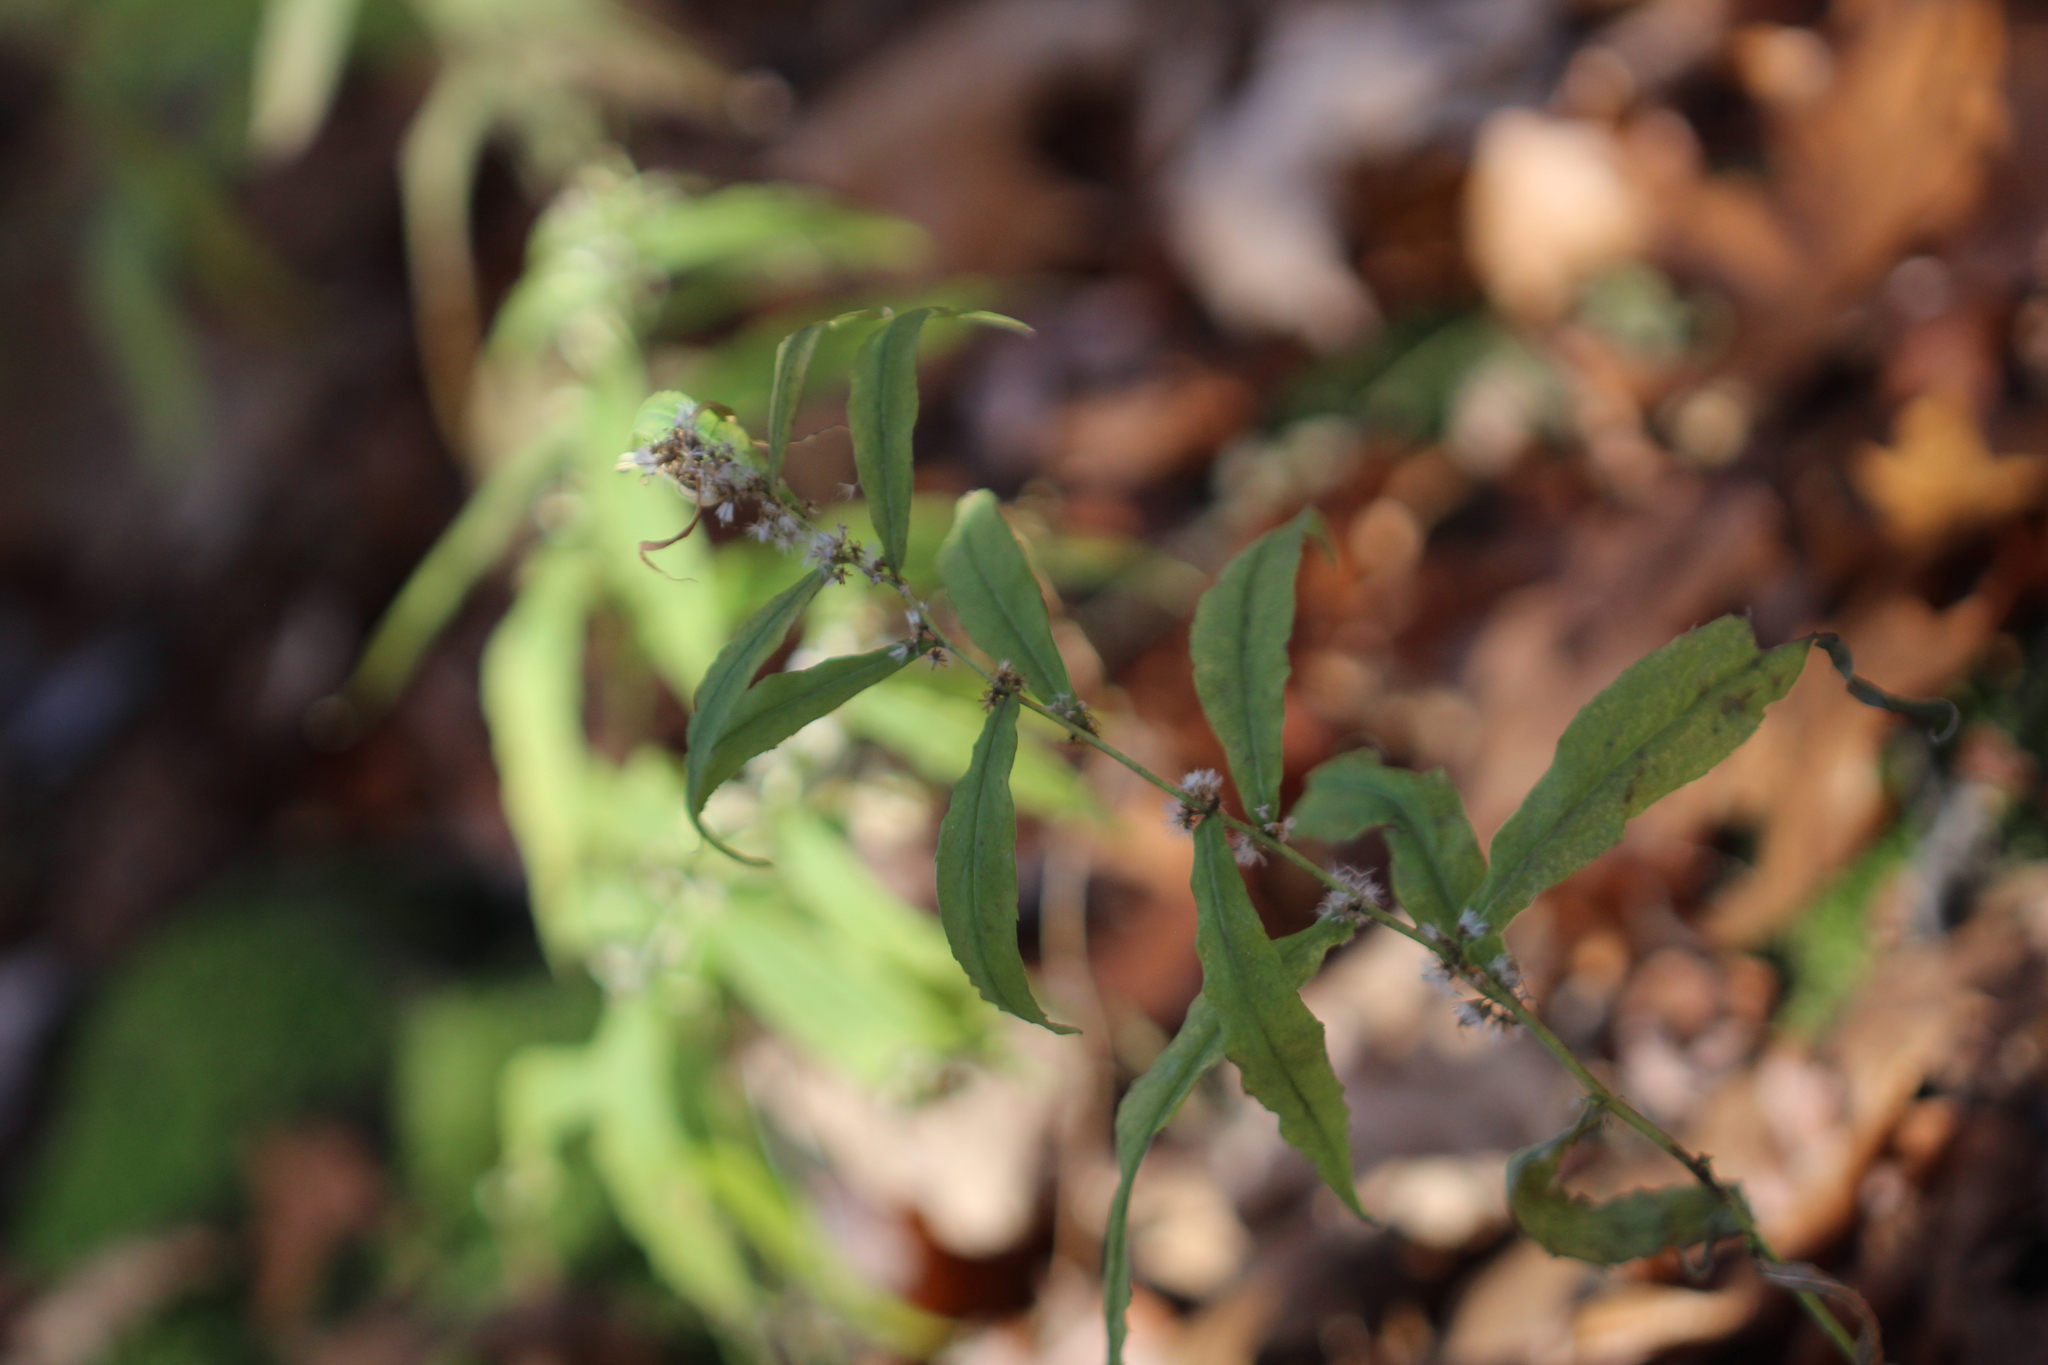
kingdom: Plantae
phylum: Tracheophyta
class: Magnoliopsida
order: Asterales
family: Asteraceae
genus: Solidago
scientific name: Solidago caesia
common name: Woodland goldenrod
